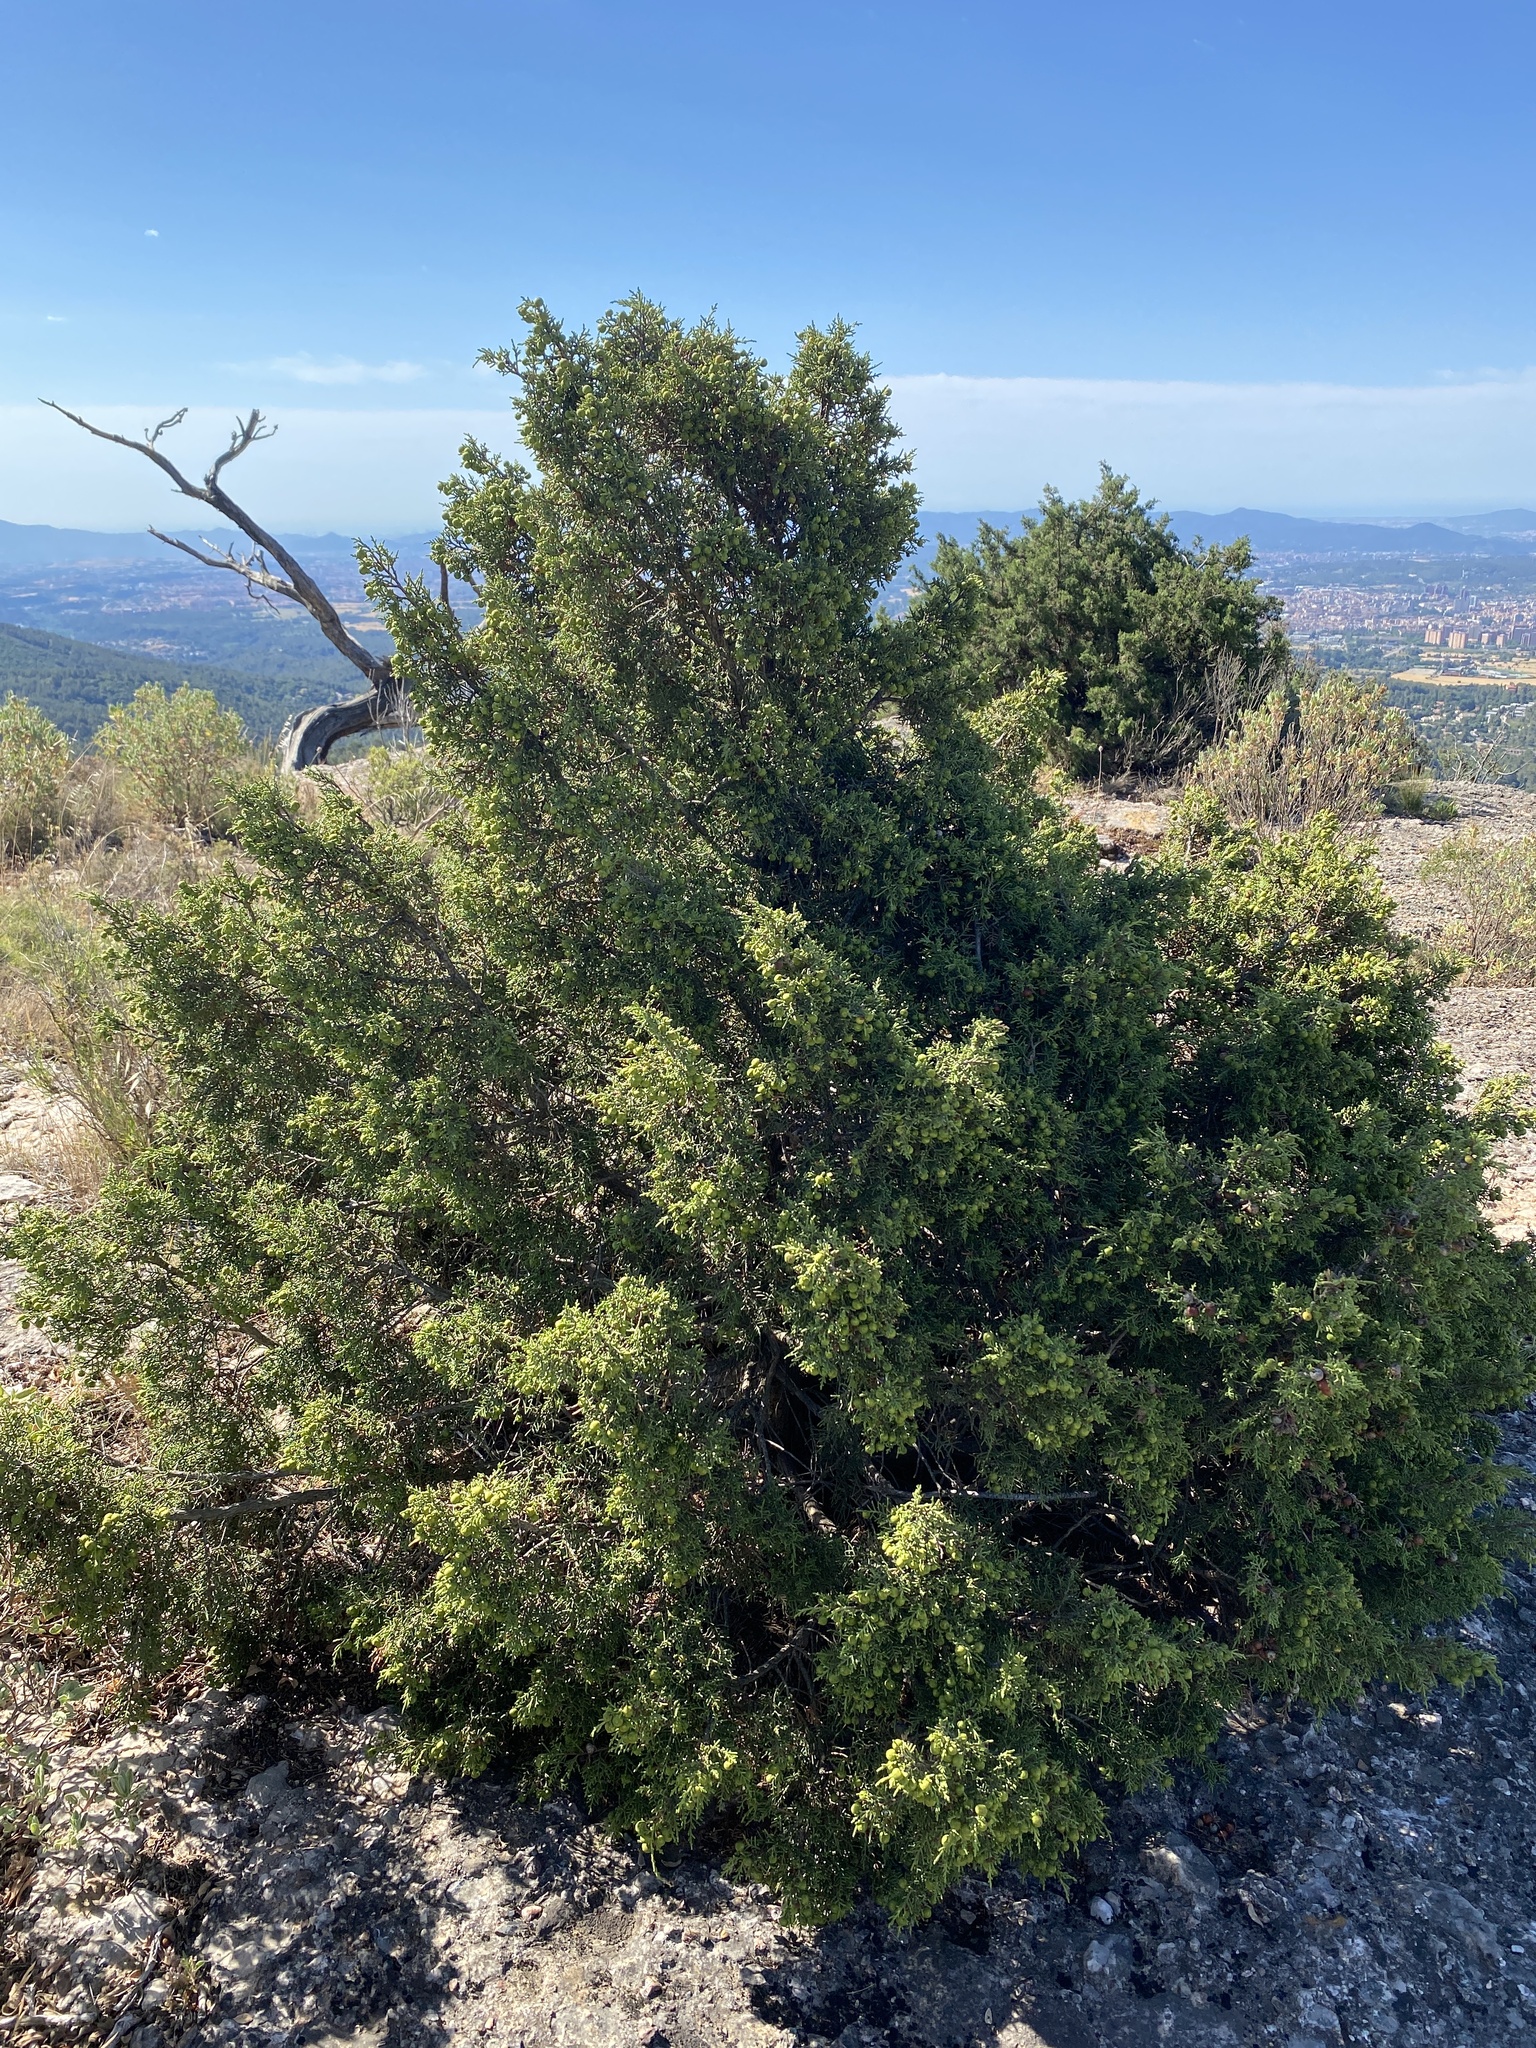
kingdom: Plantae
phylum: Tracheophyta
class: Pinopsida
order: Pinales
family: Cupressaceae
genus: Juniperus
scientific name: Juniperus phoenicea
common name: Phoenician juniper
